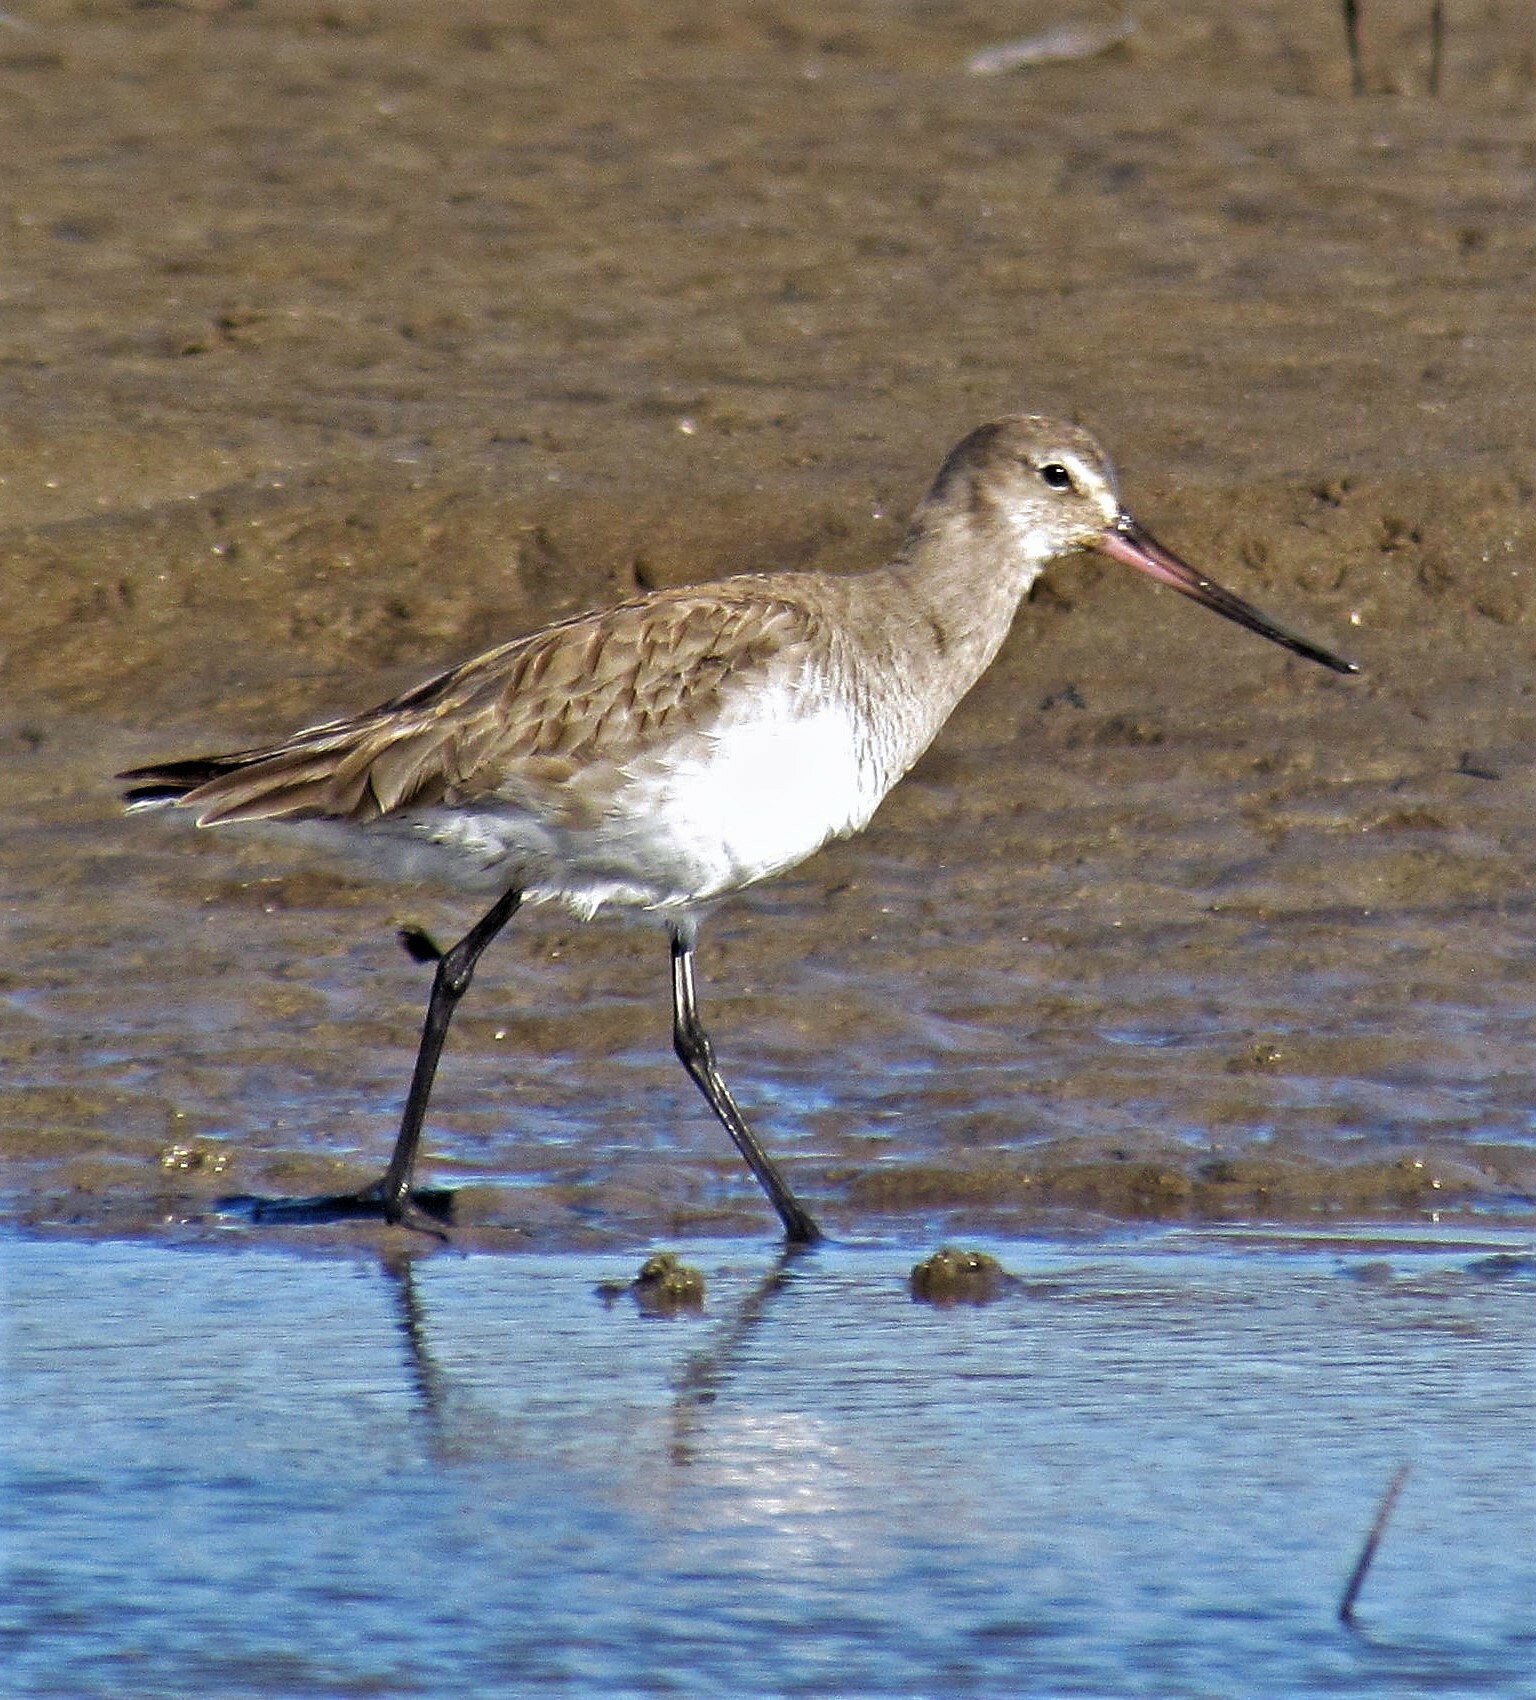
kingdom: Animalia
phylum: Chordata
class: Aves
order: Charadriiformes
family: Scolopacidae
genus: Limosa
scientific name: Limosa haemastica
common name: Hudsonian godwit
